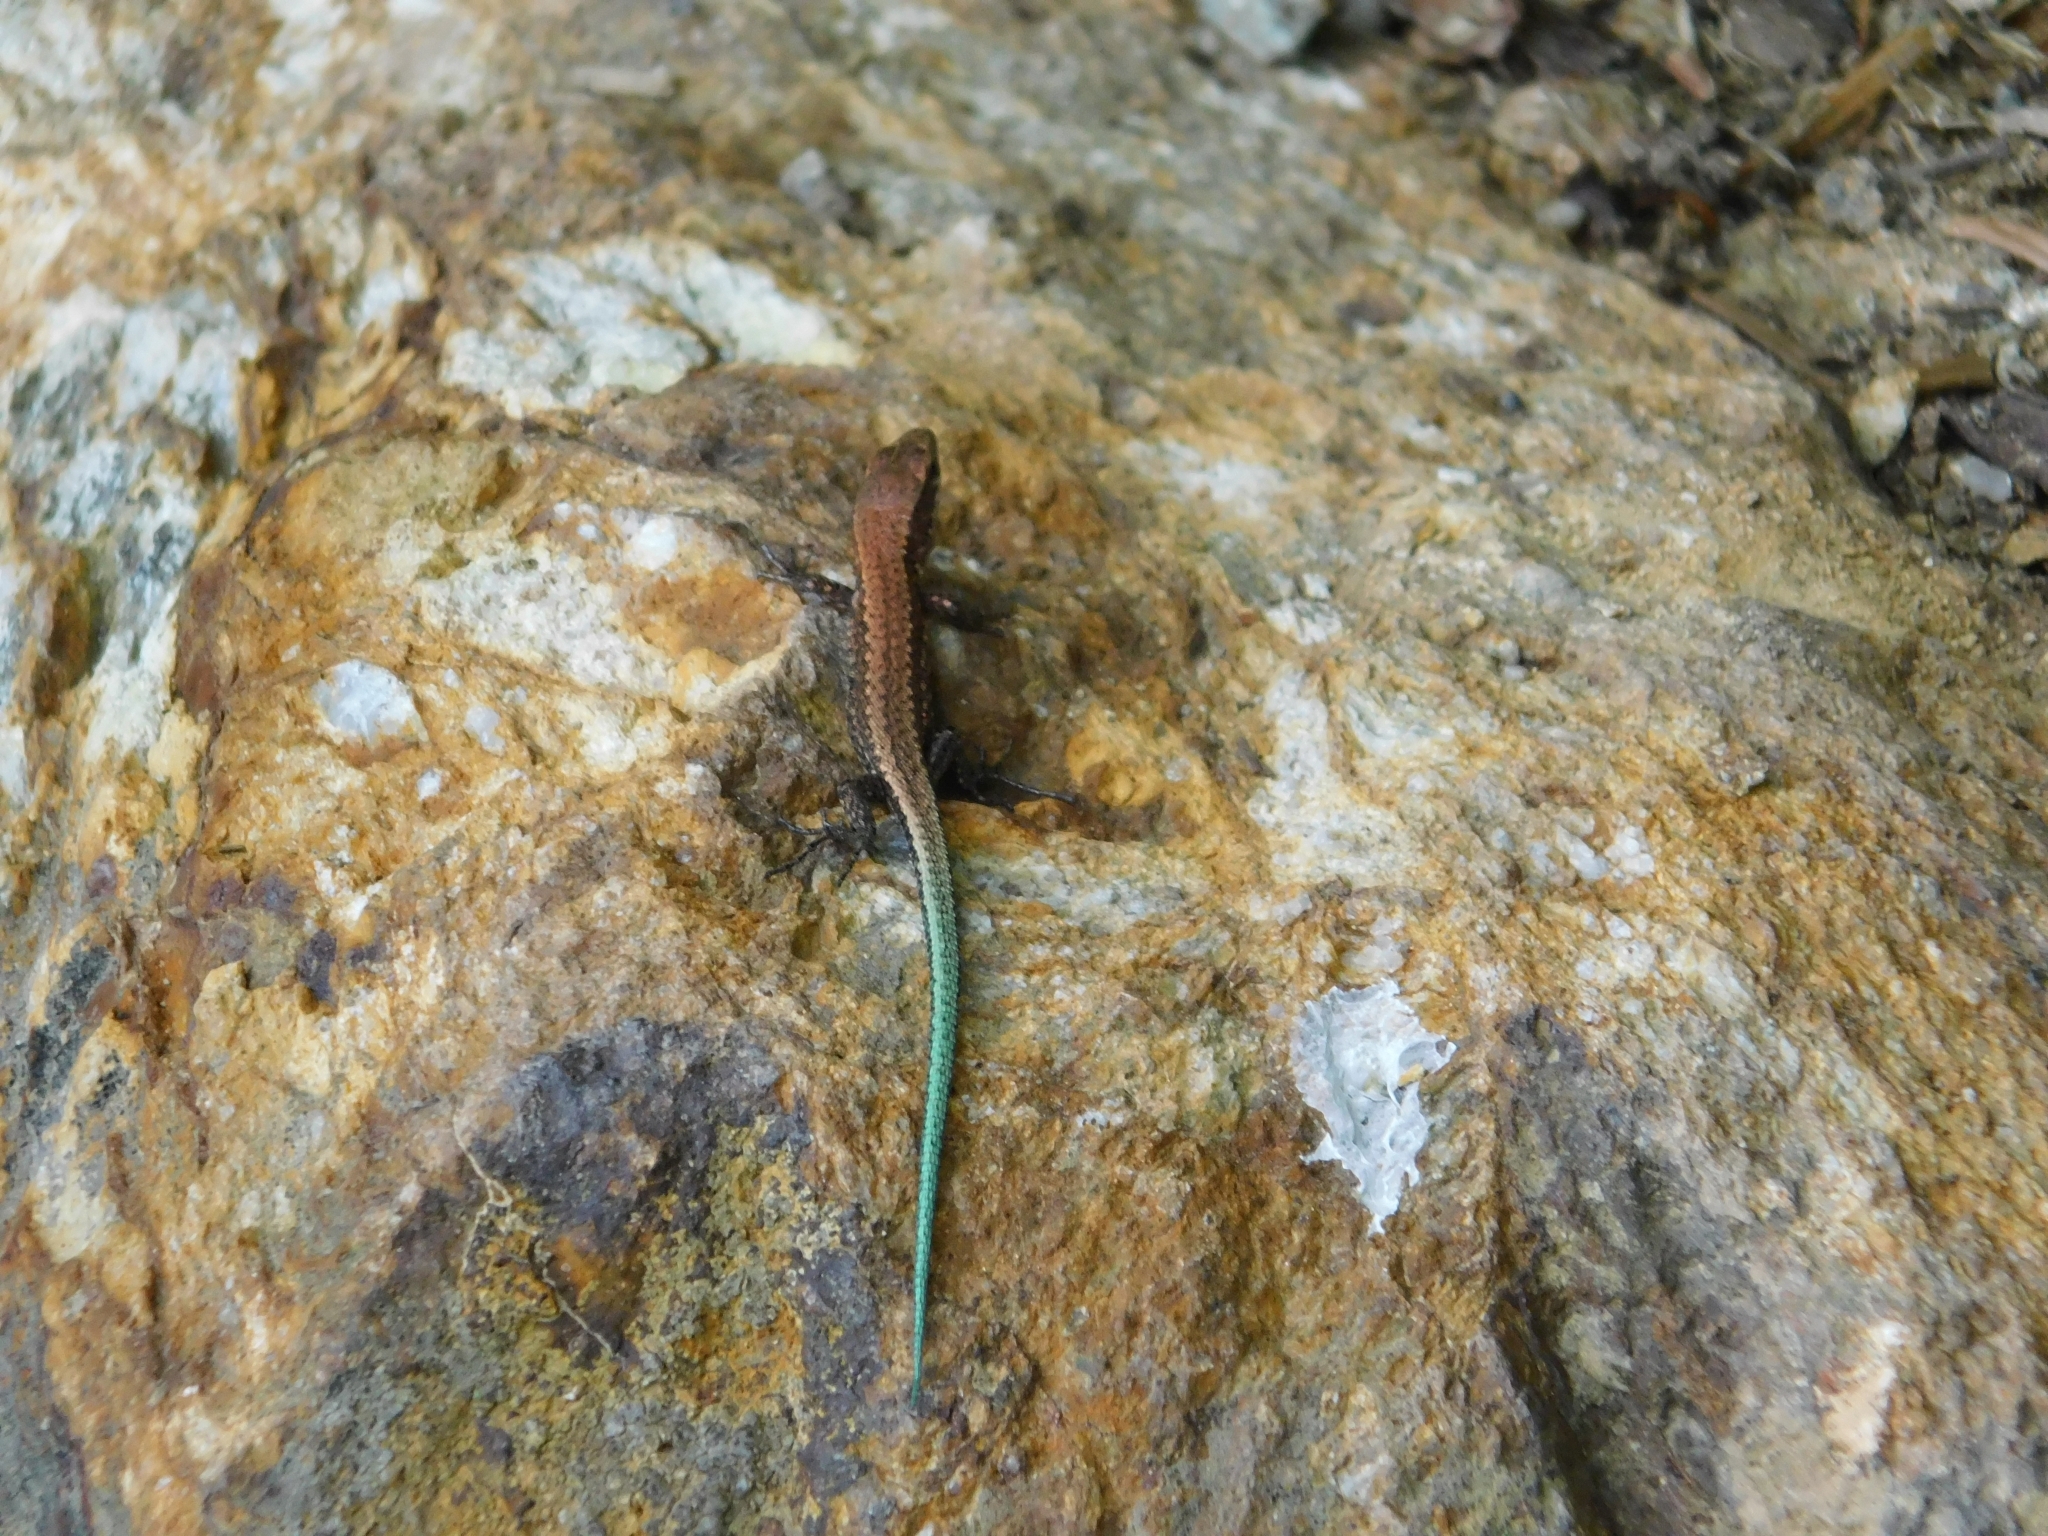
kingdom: Animalia
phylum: Chordata
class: Squamata
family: Lacertidae
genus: Darevskia
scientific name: Darevskia derjugini
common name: Derjugin's lizard
